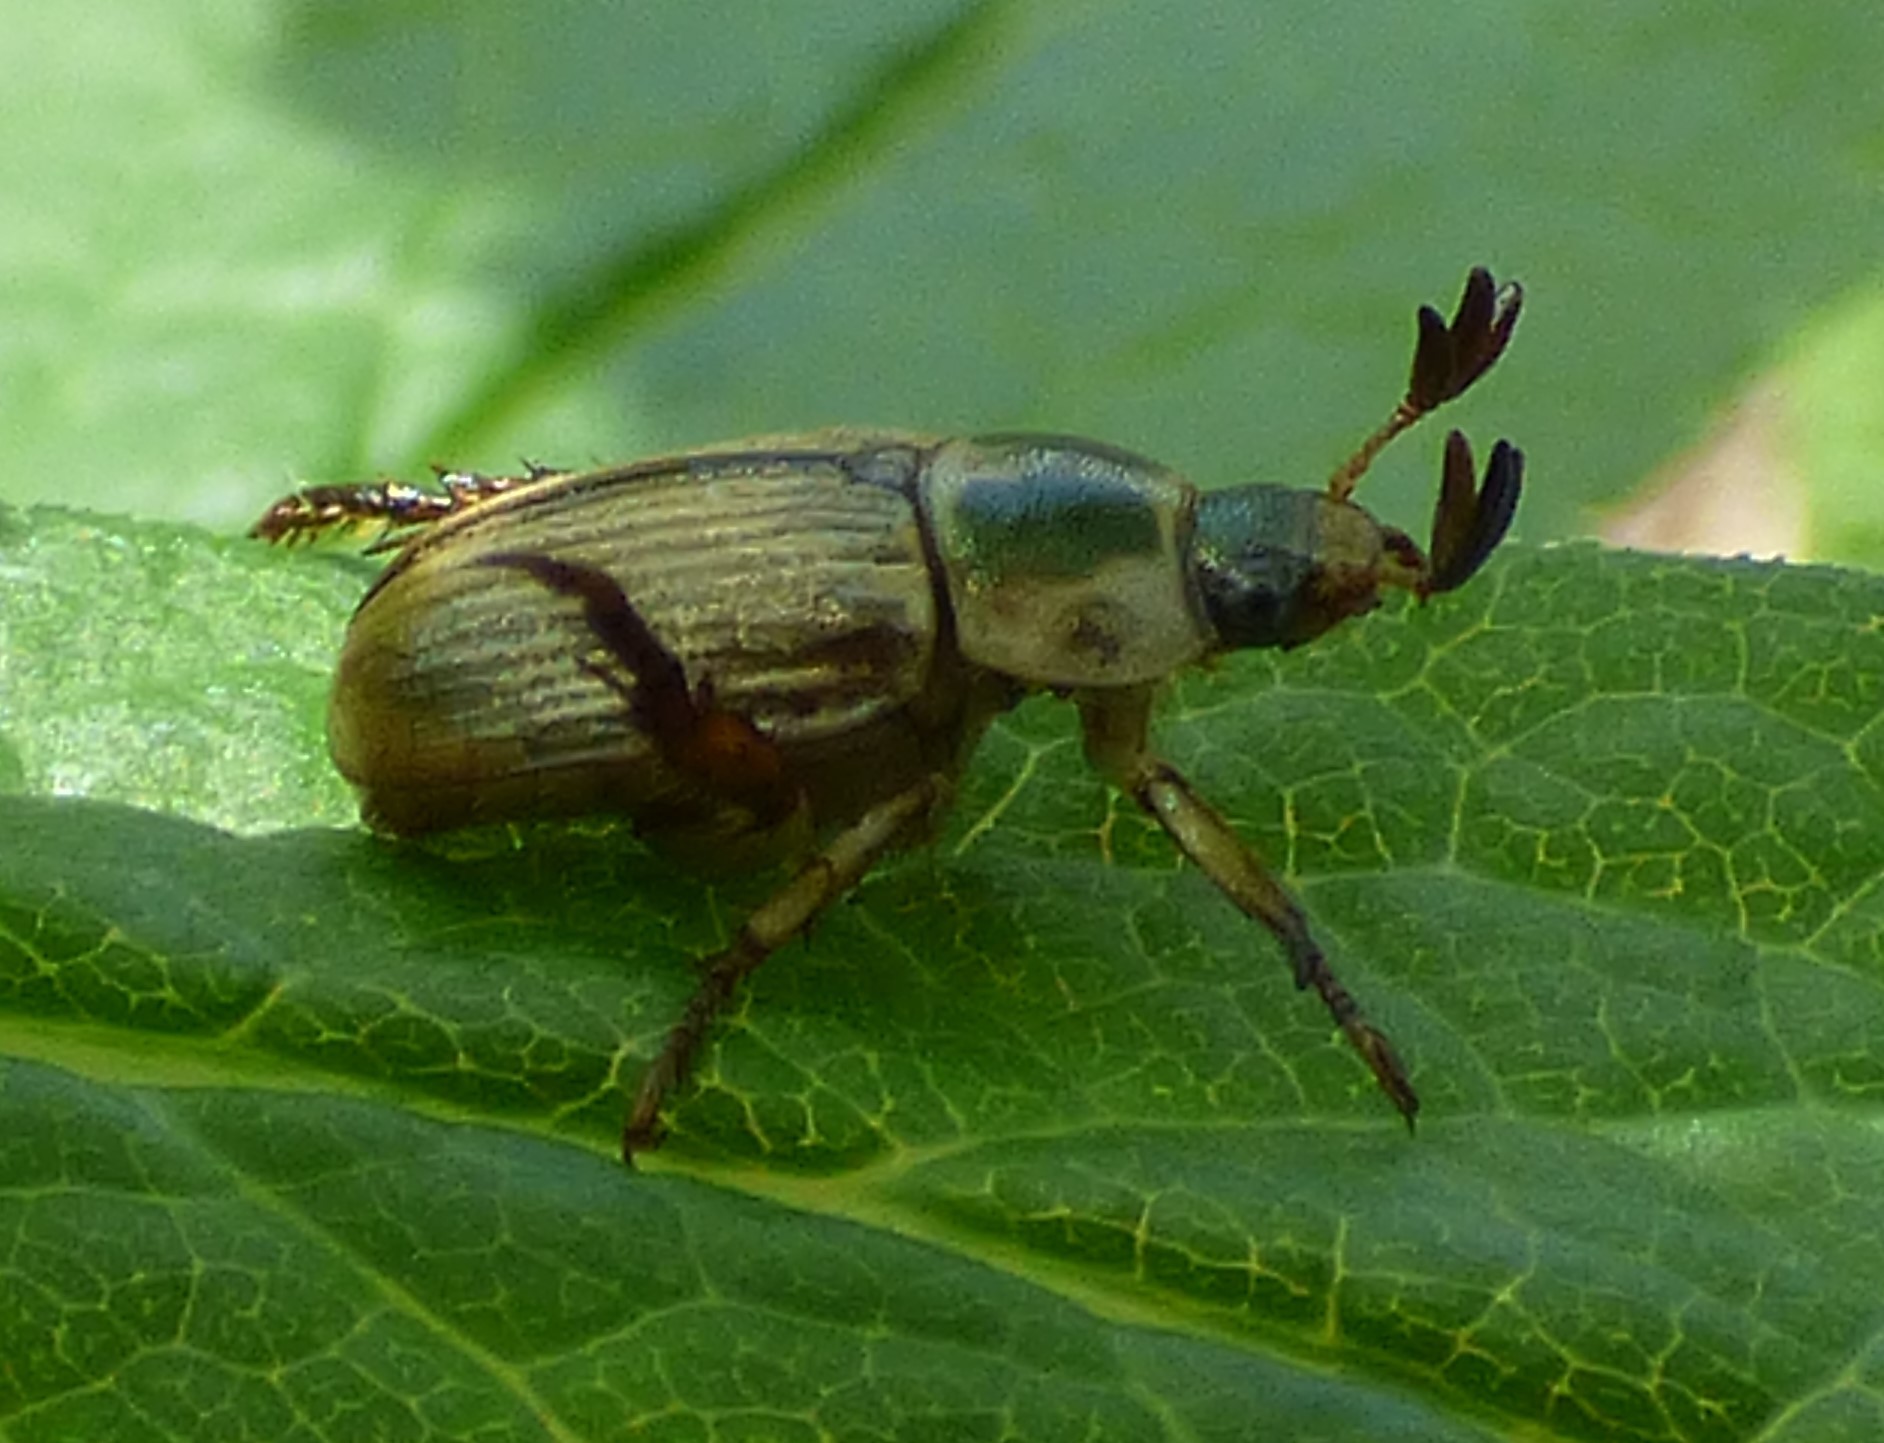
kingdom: Animalia
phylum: Arthropoda
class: Insecta
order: Coleoptera
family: Scarabaeidae
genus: Exomala
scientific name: Exomala orientalis
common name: Oriental beetle
